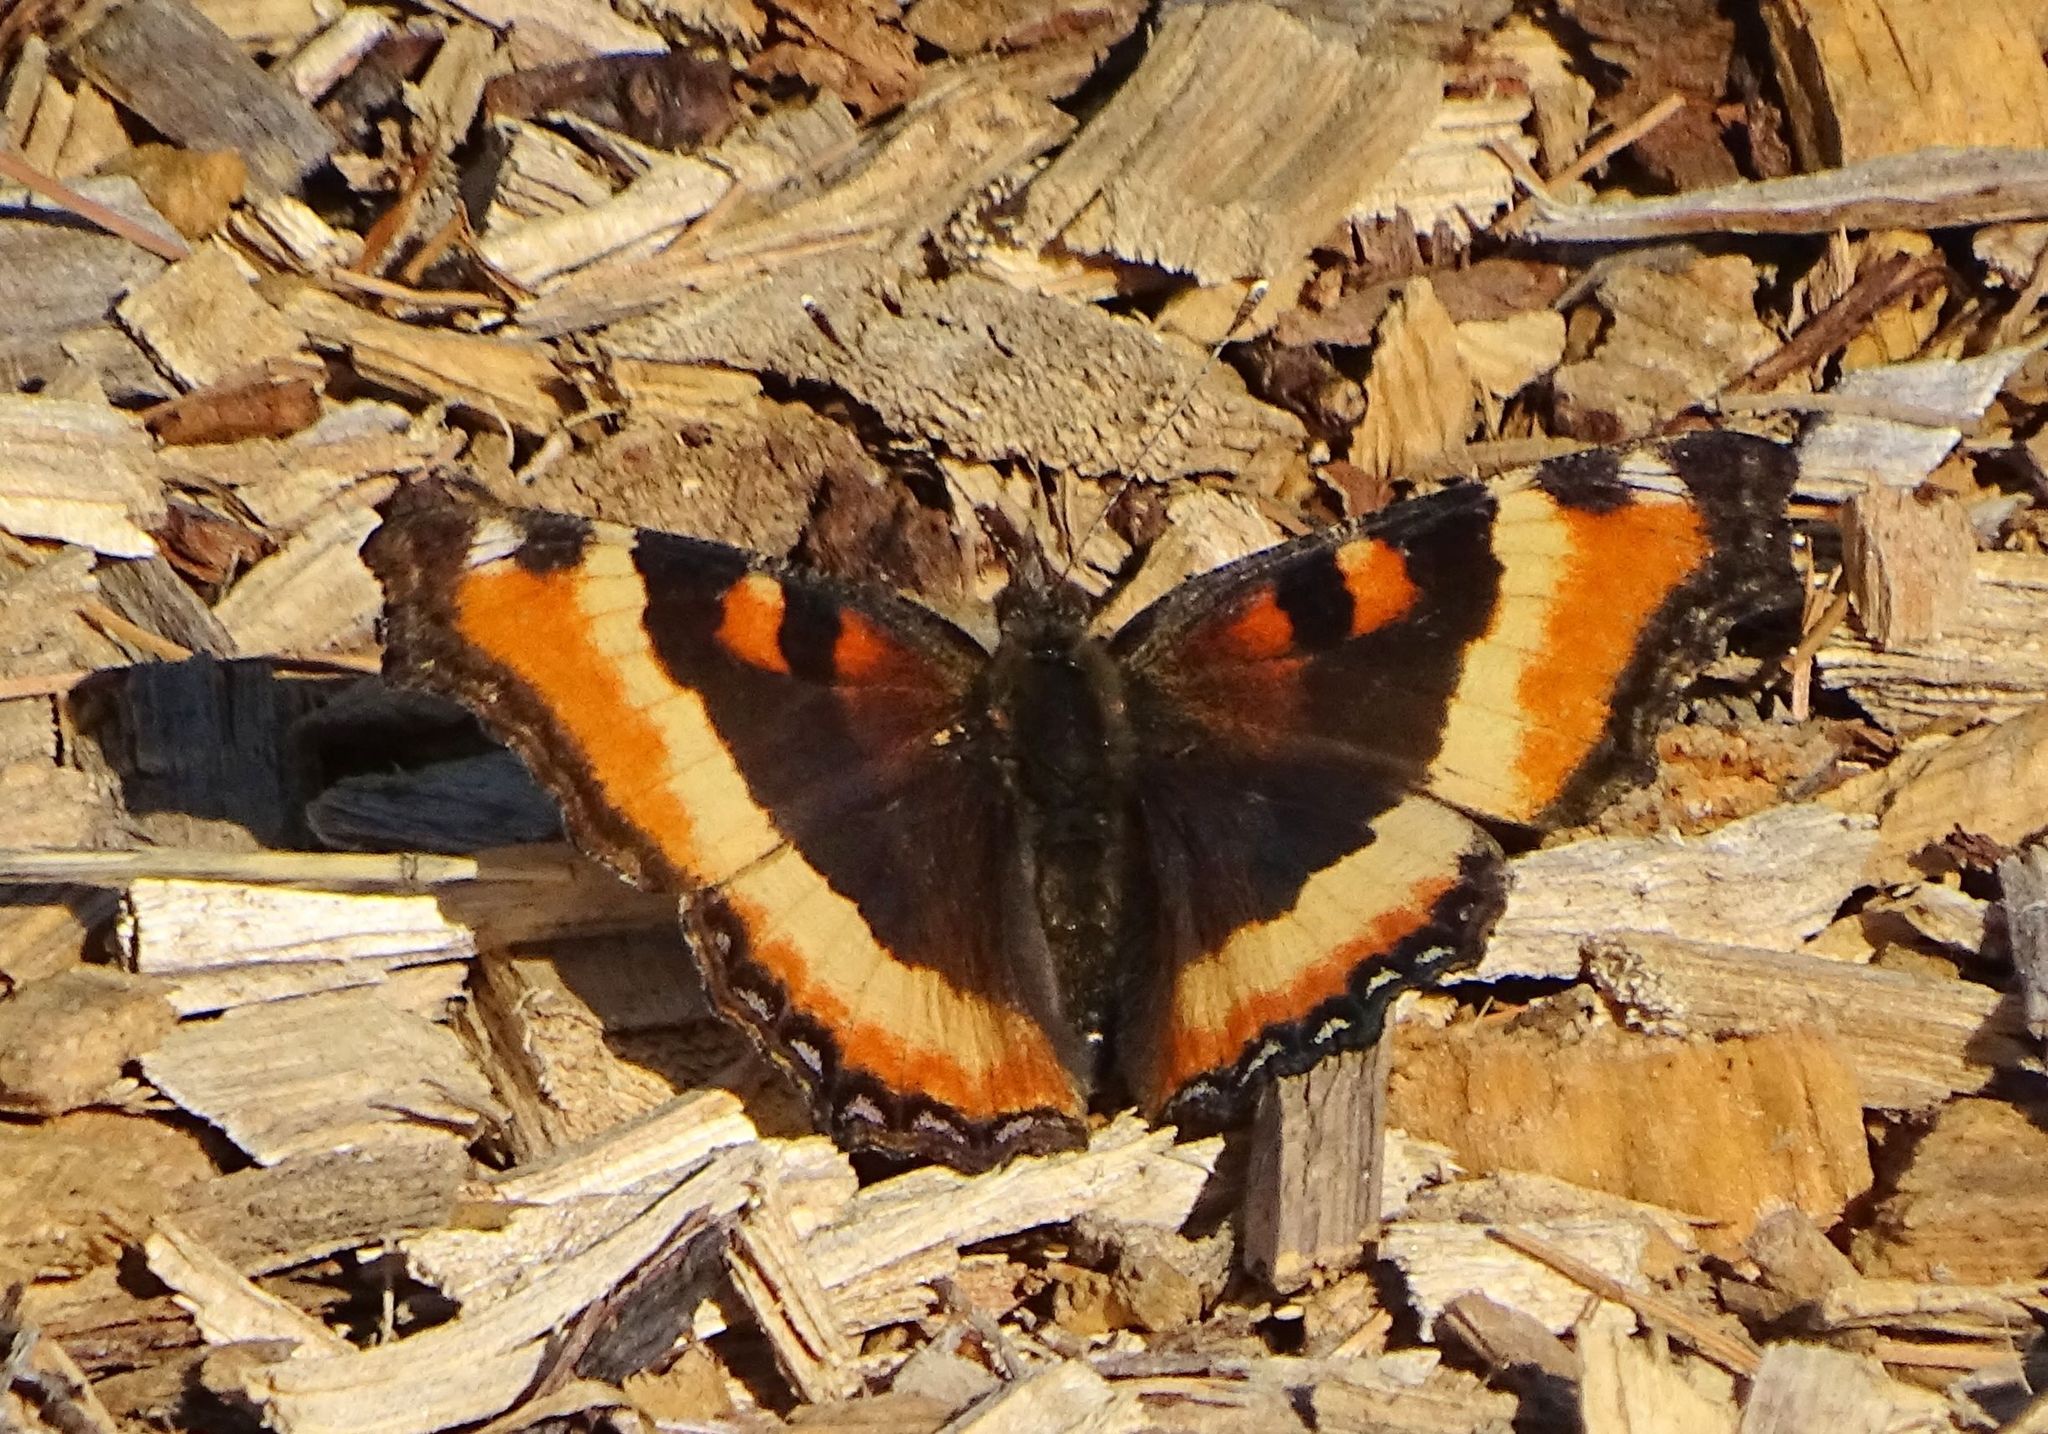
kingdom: Animalia
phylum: Arthropoda
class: Insecta
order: Lepidoptera
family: Nymphalidae
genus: Aglais
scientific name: Aglais milberti
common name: Milbert's tortoiseshell
